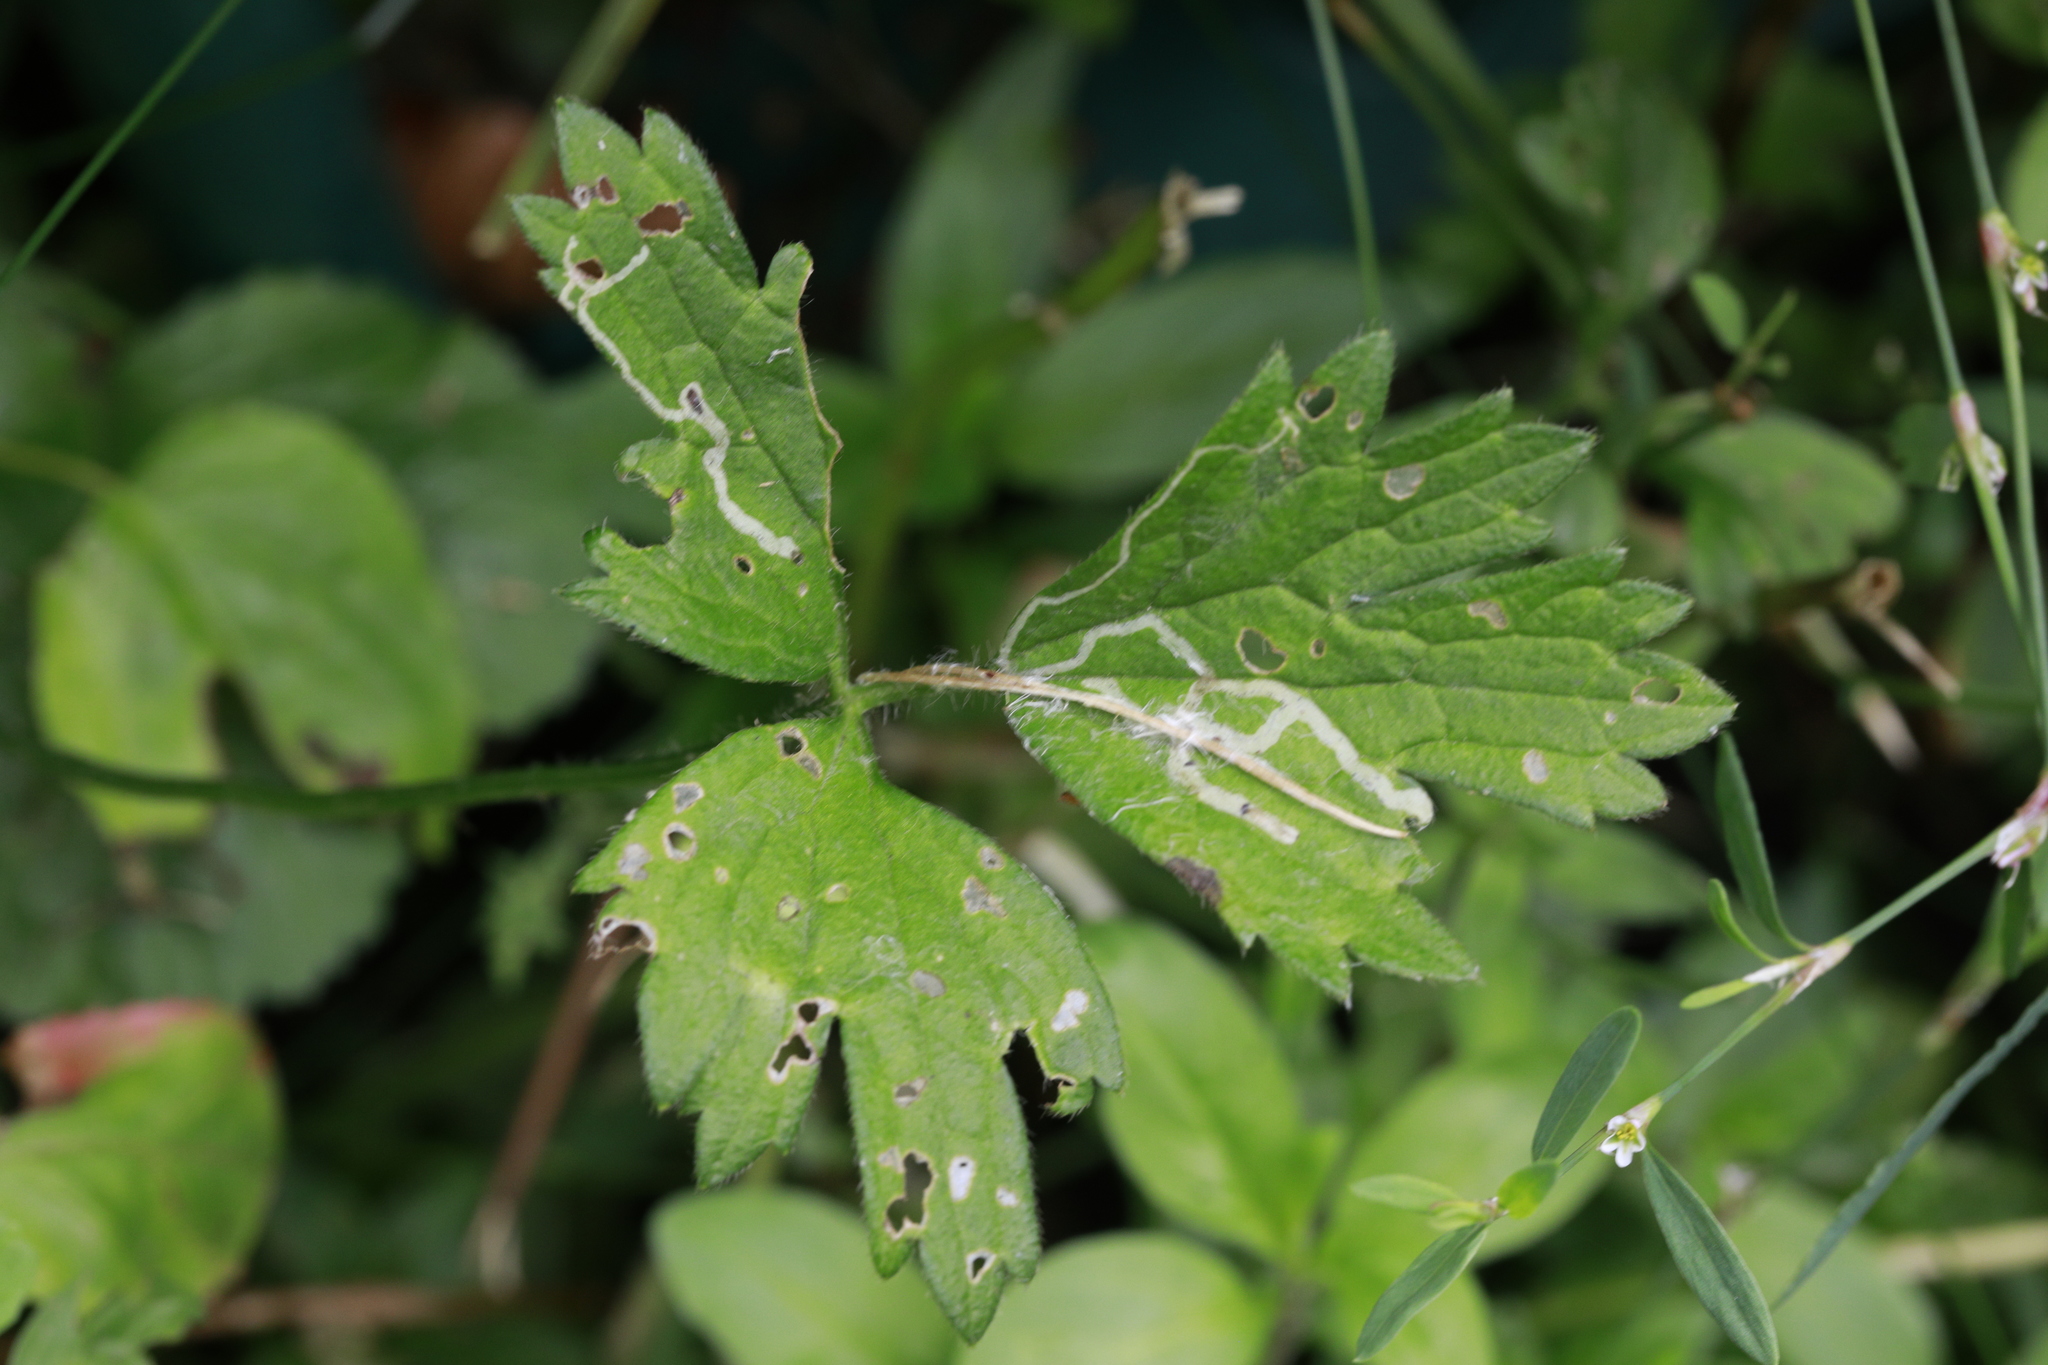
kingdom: Animalia
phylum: Arthropoda
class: Insecta
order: Diptera
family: Agromyzidae
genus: Phytomyza
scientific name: Phytomyza ranunculi
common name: Leaf-miner fly
